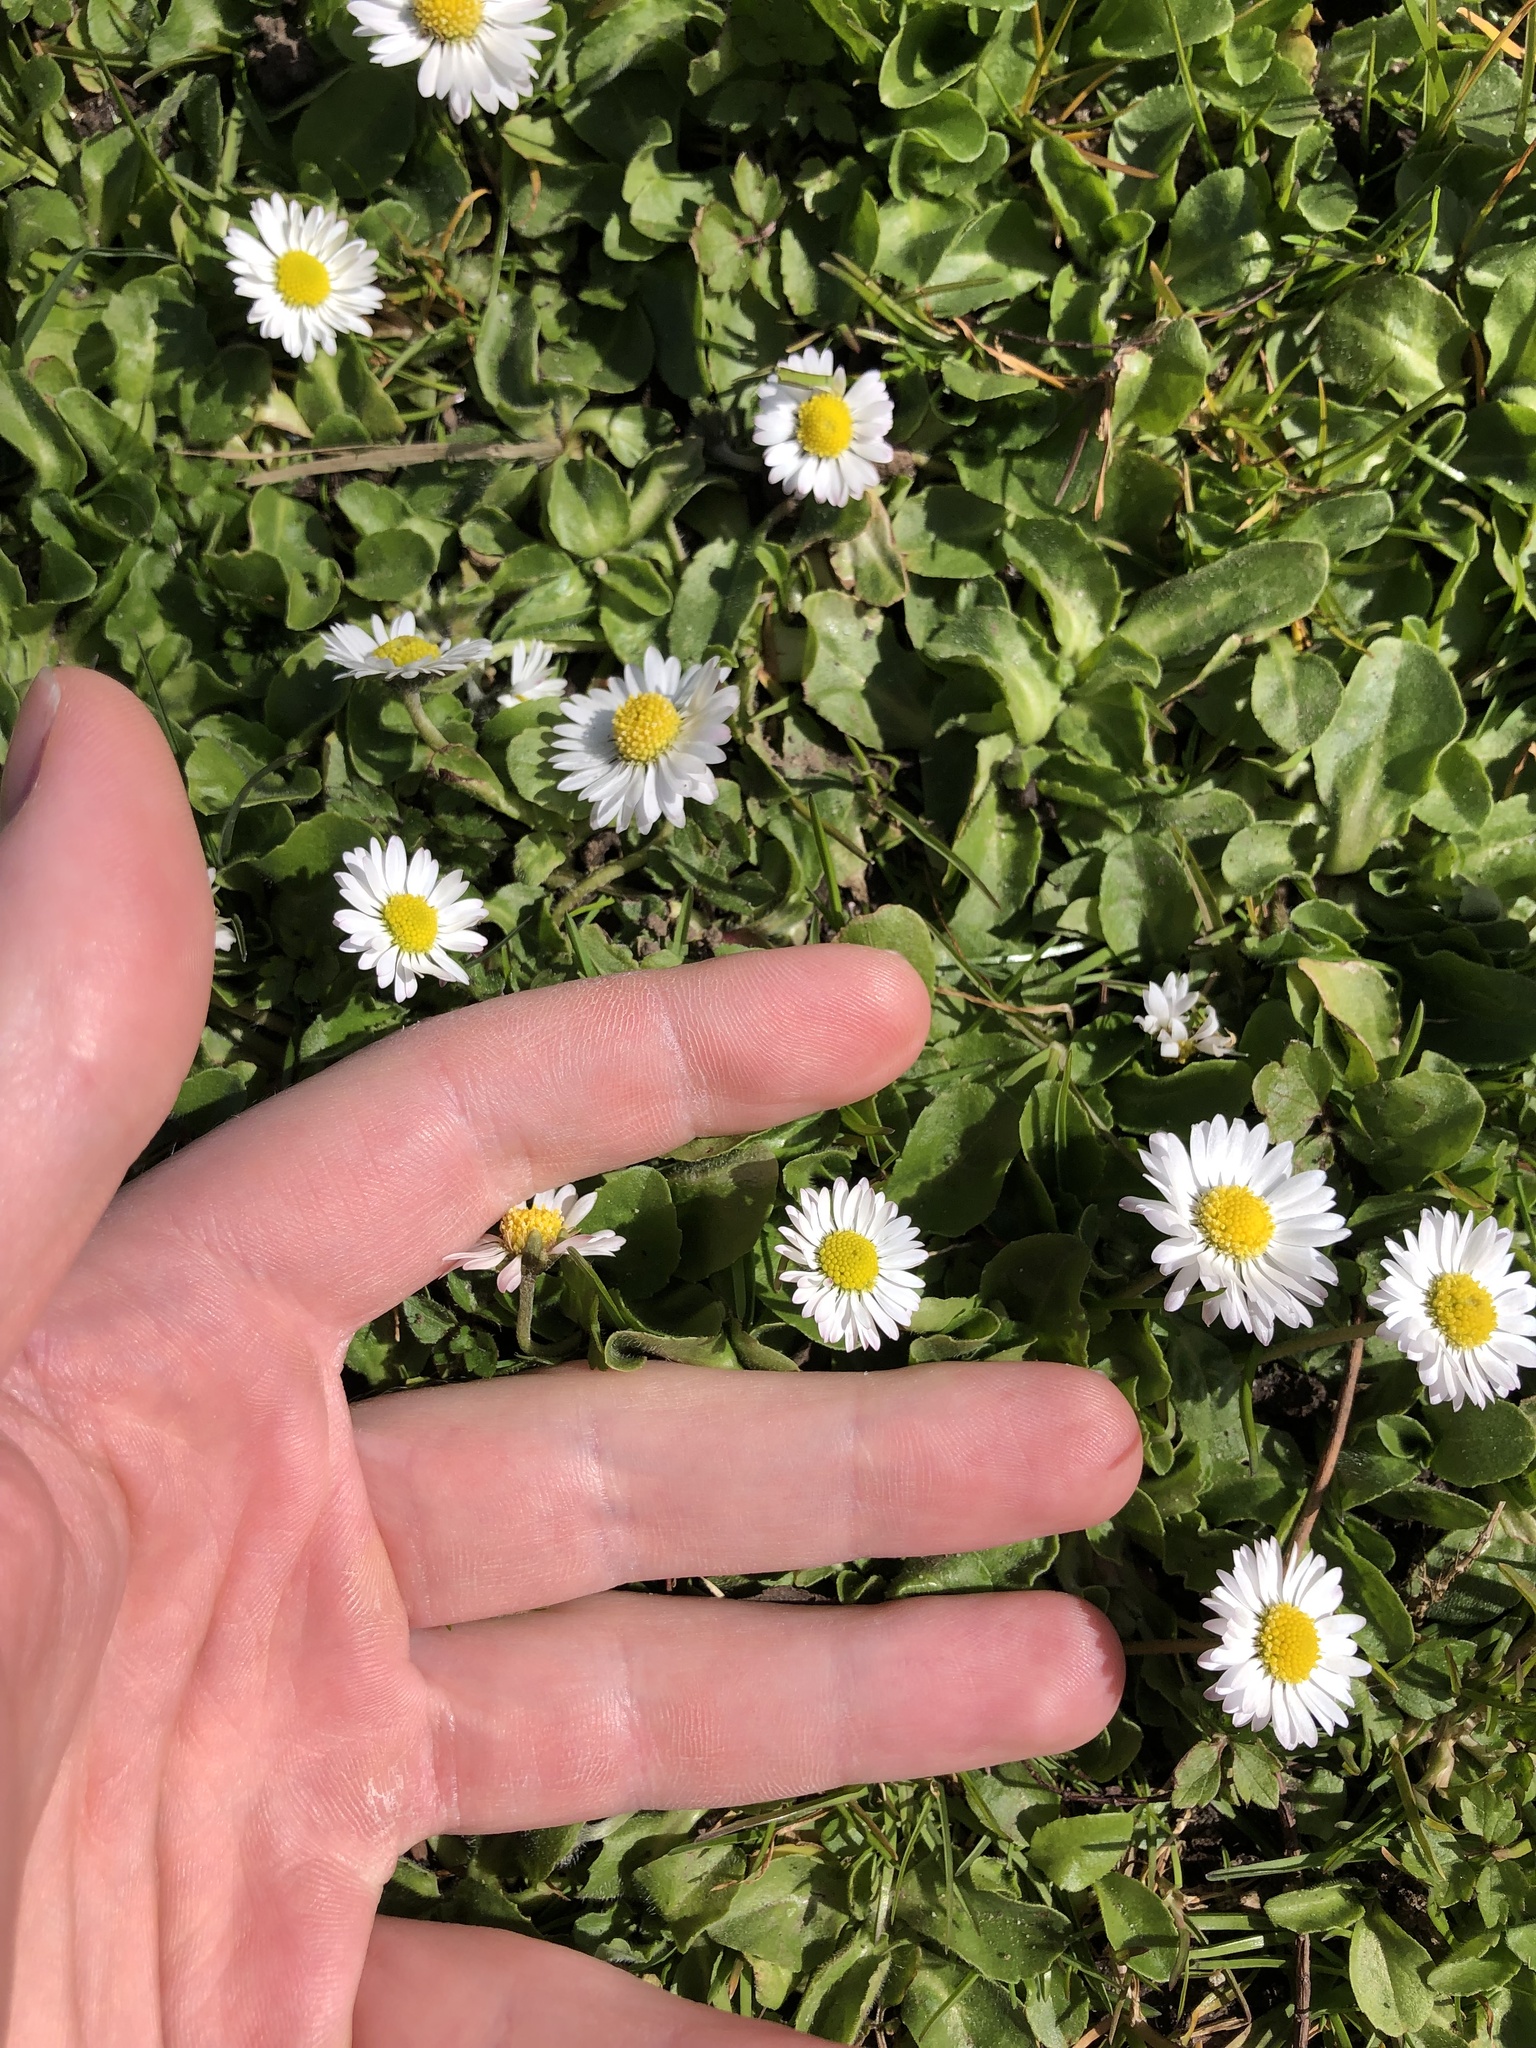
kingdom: Plantae
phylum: Tracheophyta
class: Magnoliopsida
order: Asterales
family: Asteraceae
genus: Bellis
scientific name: Bellis perennis
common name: Lawndaisy
